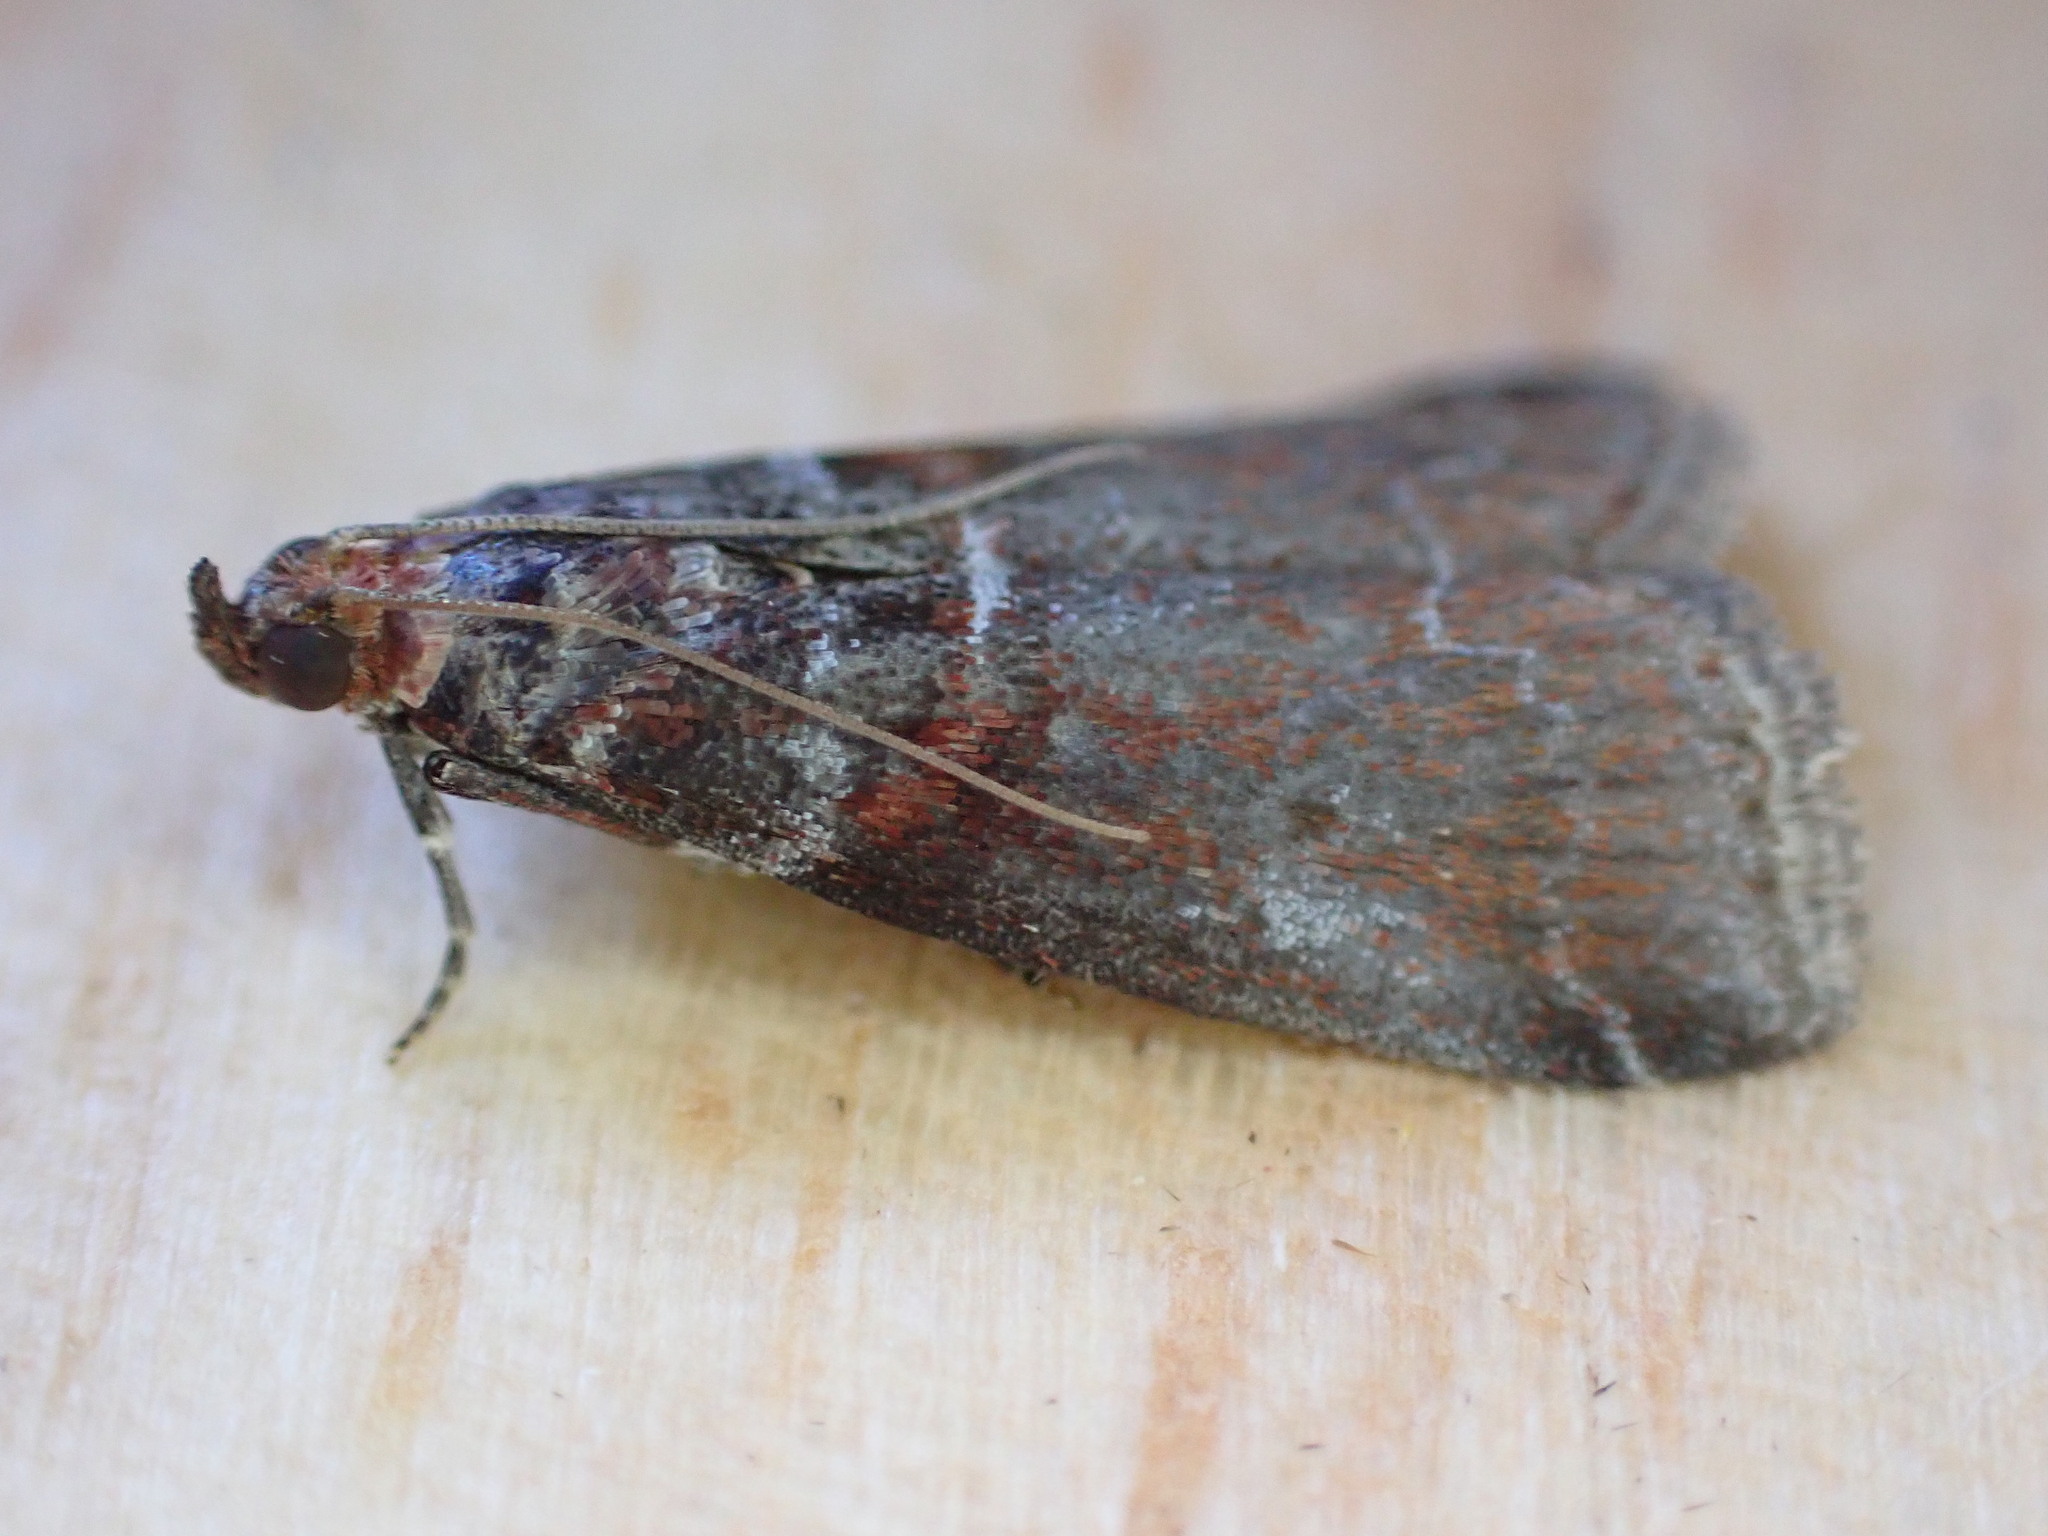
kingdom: Animalia
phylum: Arthropoda
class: Insecta
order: Lepidoptera
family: Pyralidae
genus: Acrobasis
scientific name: Acrobasis advenella
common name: Grey knot-horn
